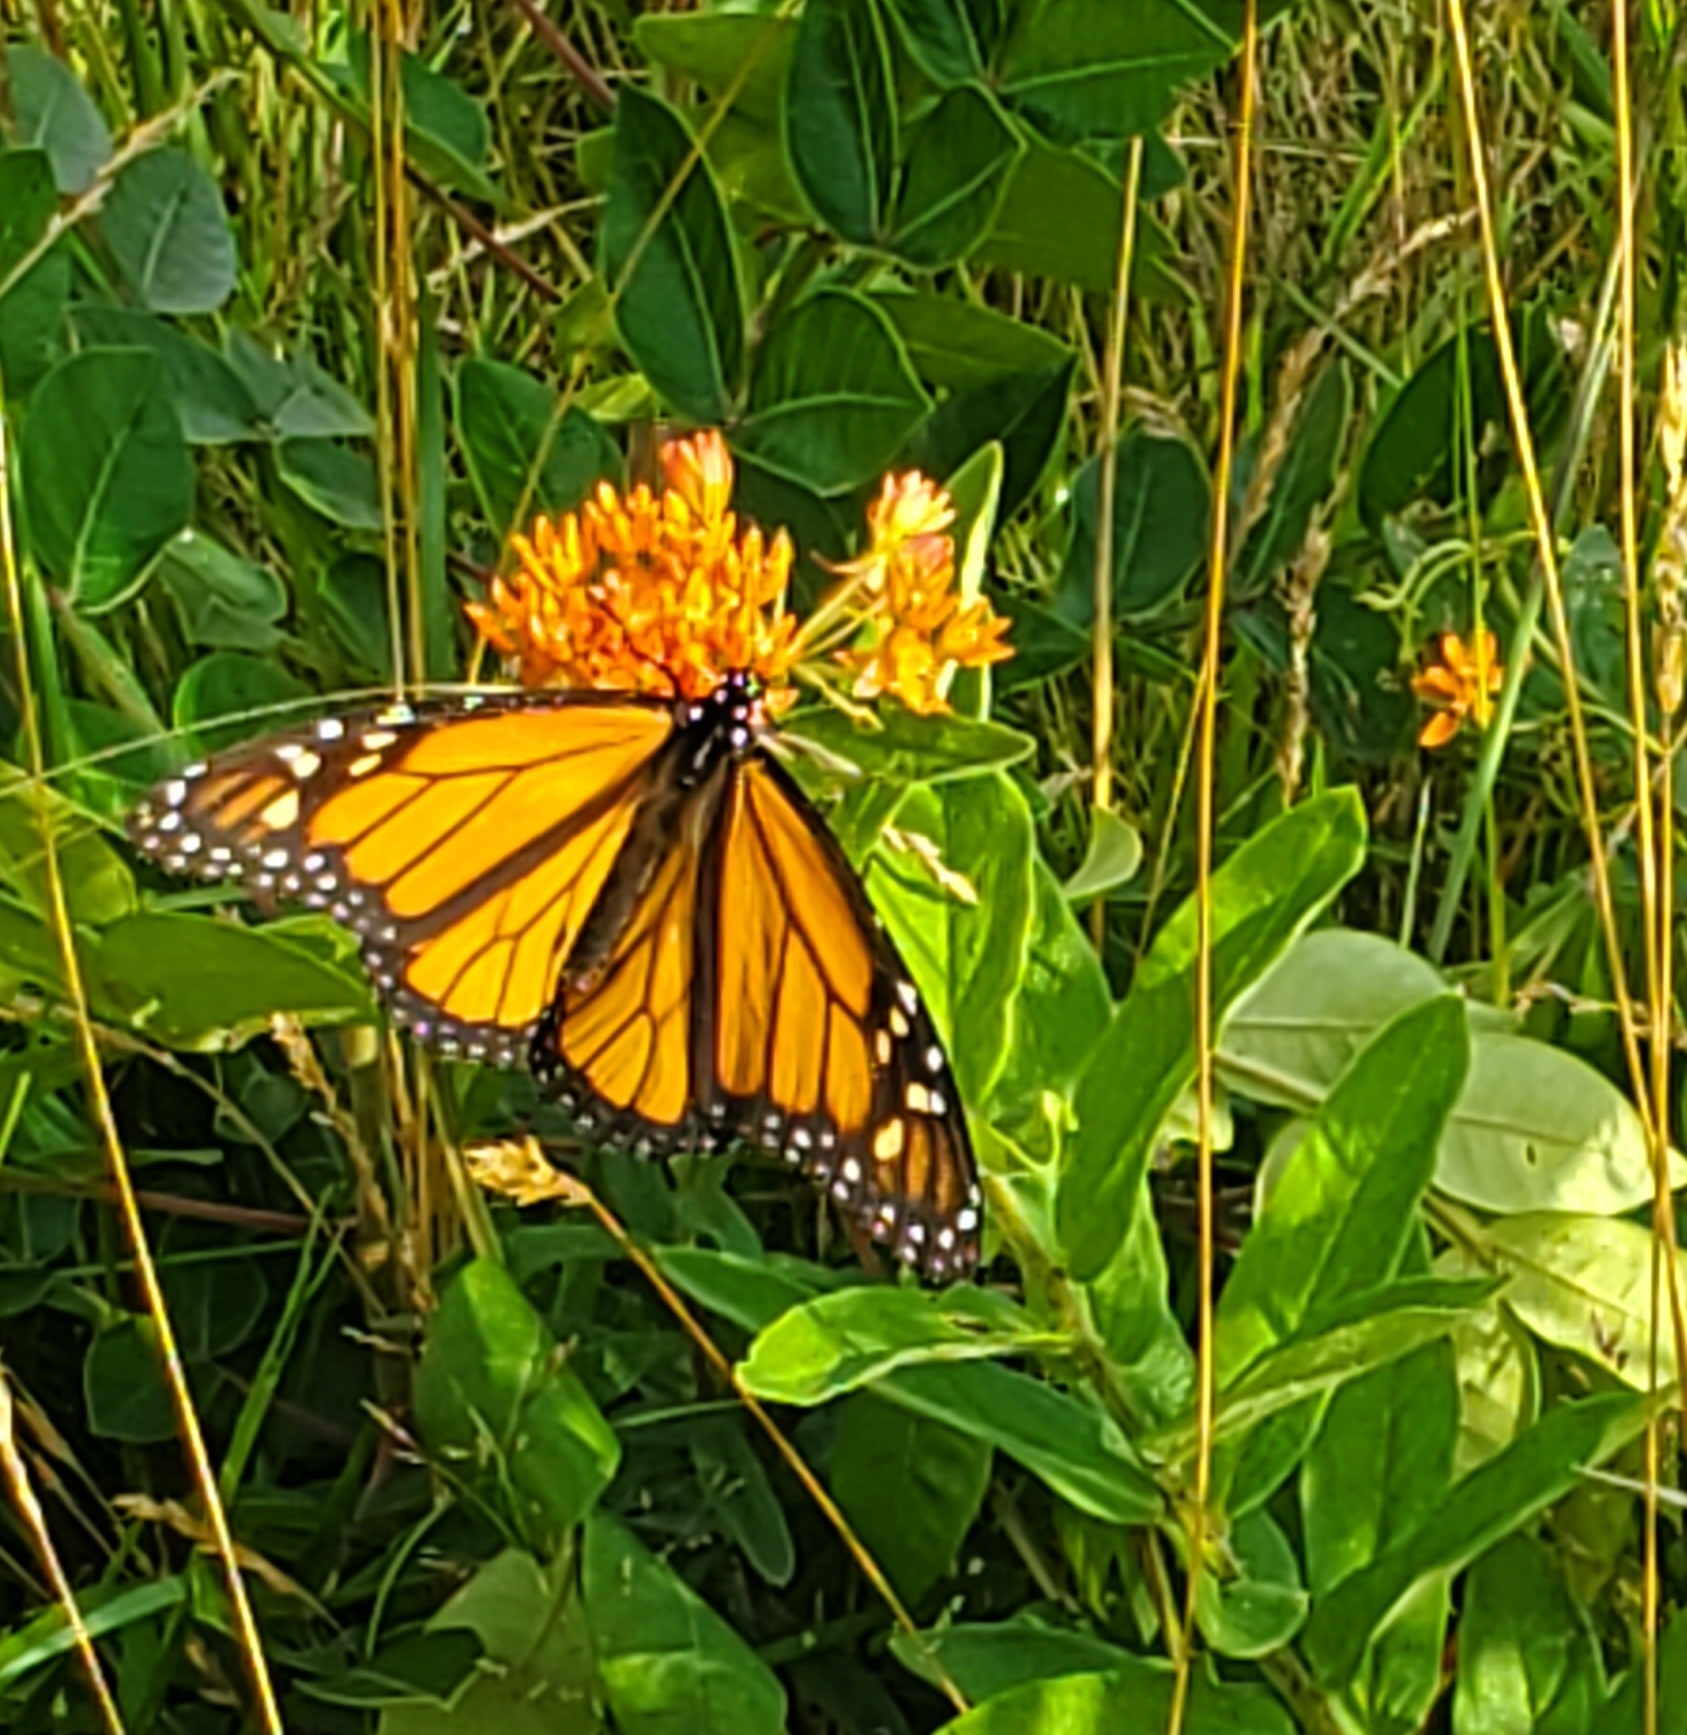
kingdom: Animalia
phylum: Arthropoda
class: Insecta
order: Lepidoptera
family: Nymphalidae
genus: Danaus
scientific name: Danaus plexippus
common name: Monarch
